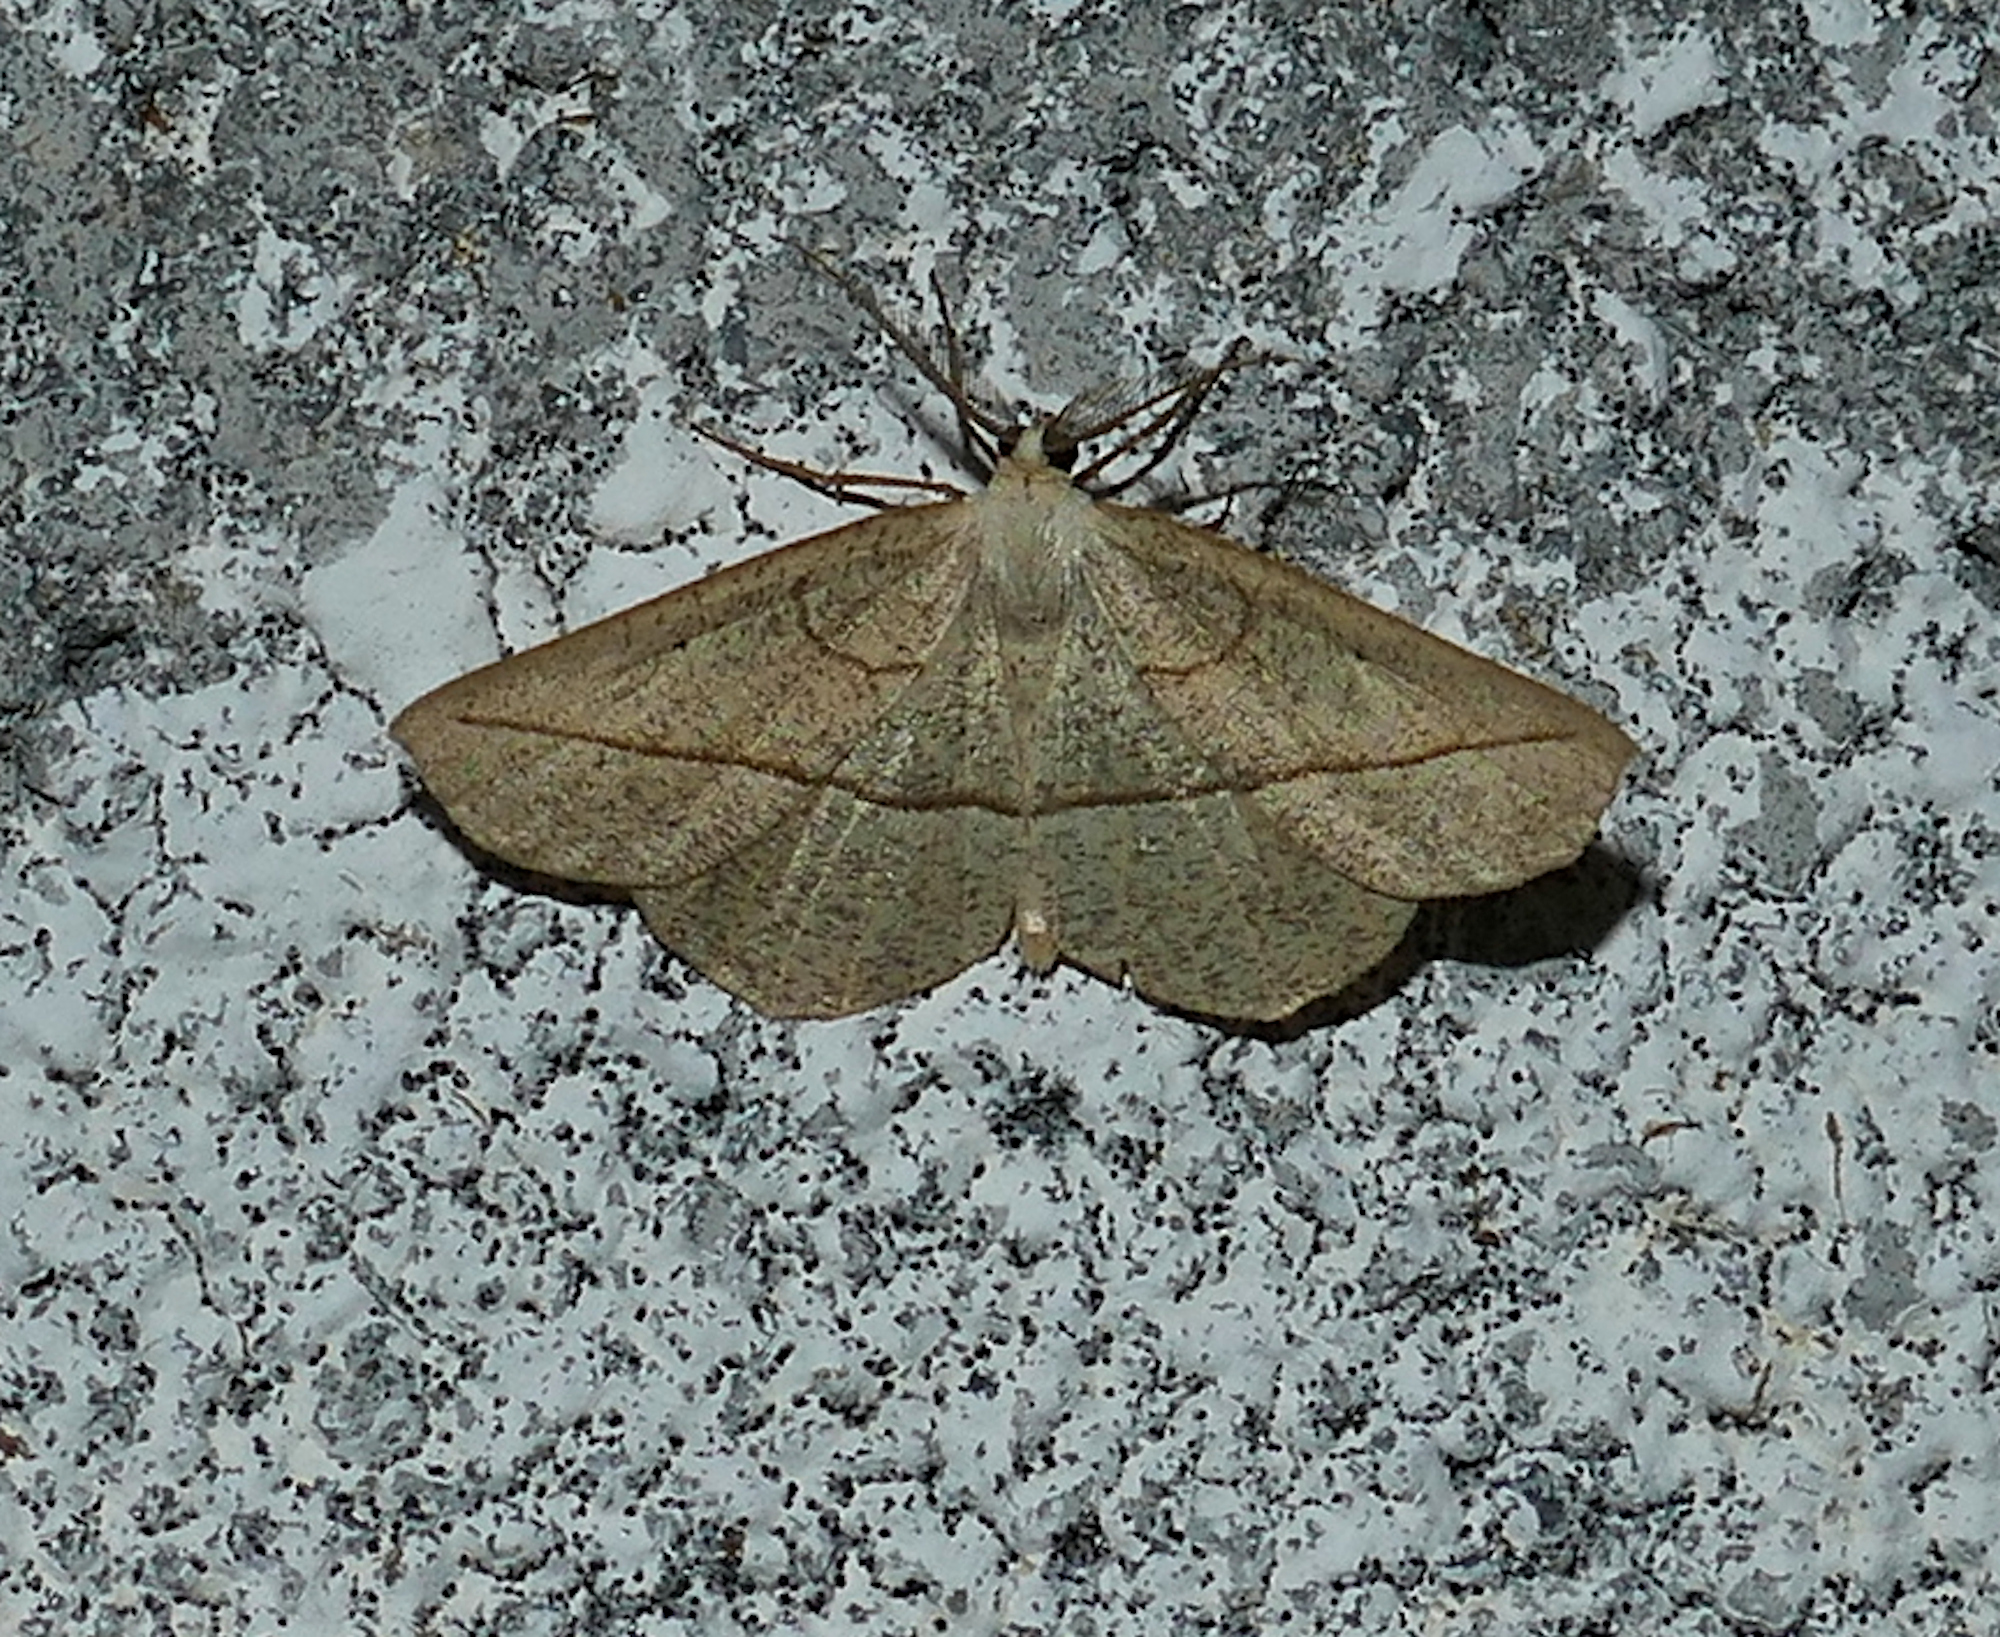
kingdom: Animalia
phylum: Arthropoda
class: Insecta
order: Lepidoptera
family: Geometridae
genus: Eusarca
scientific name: Eusarca confusaria
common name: Confused eusarca
